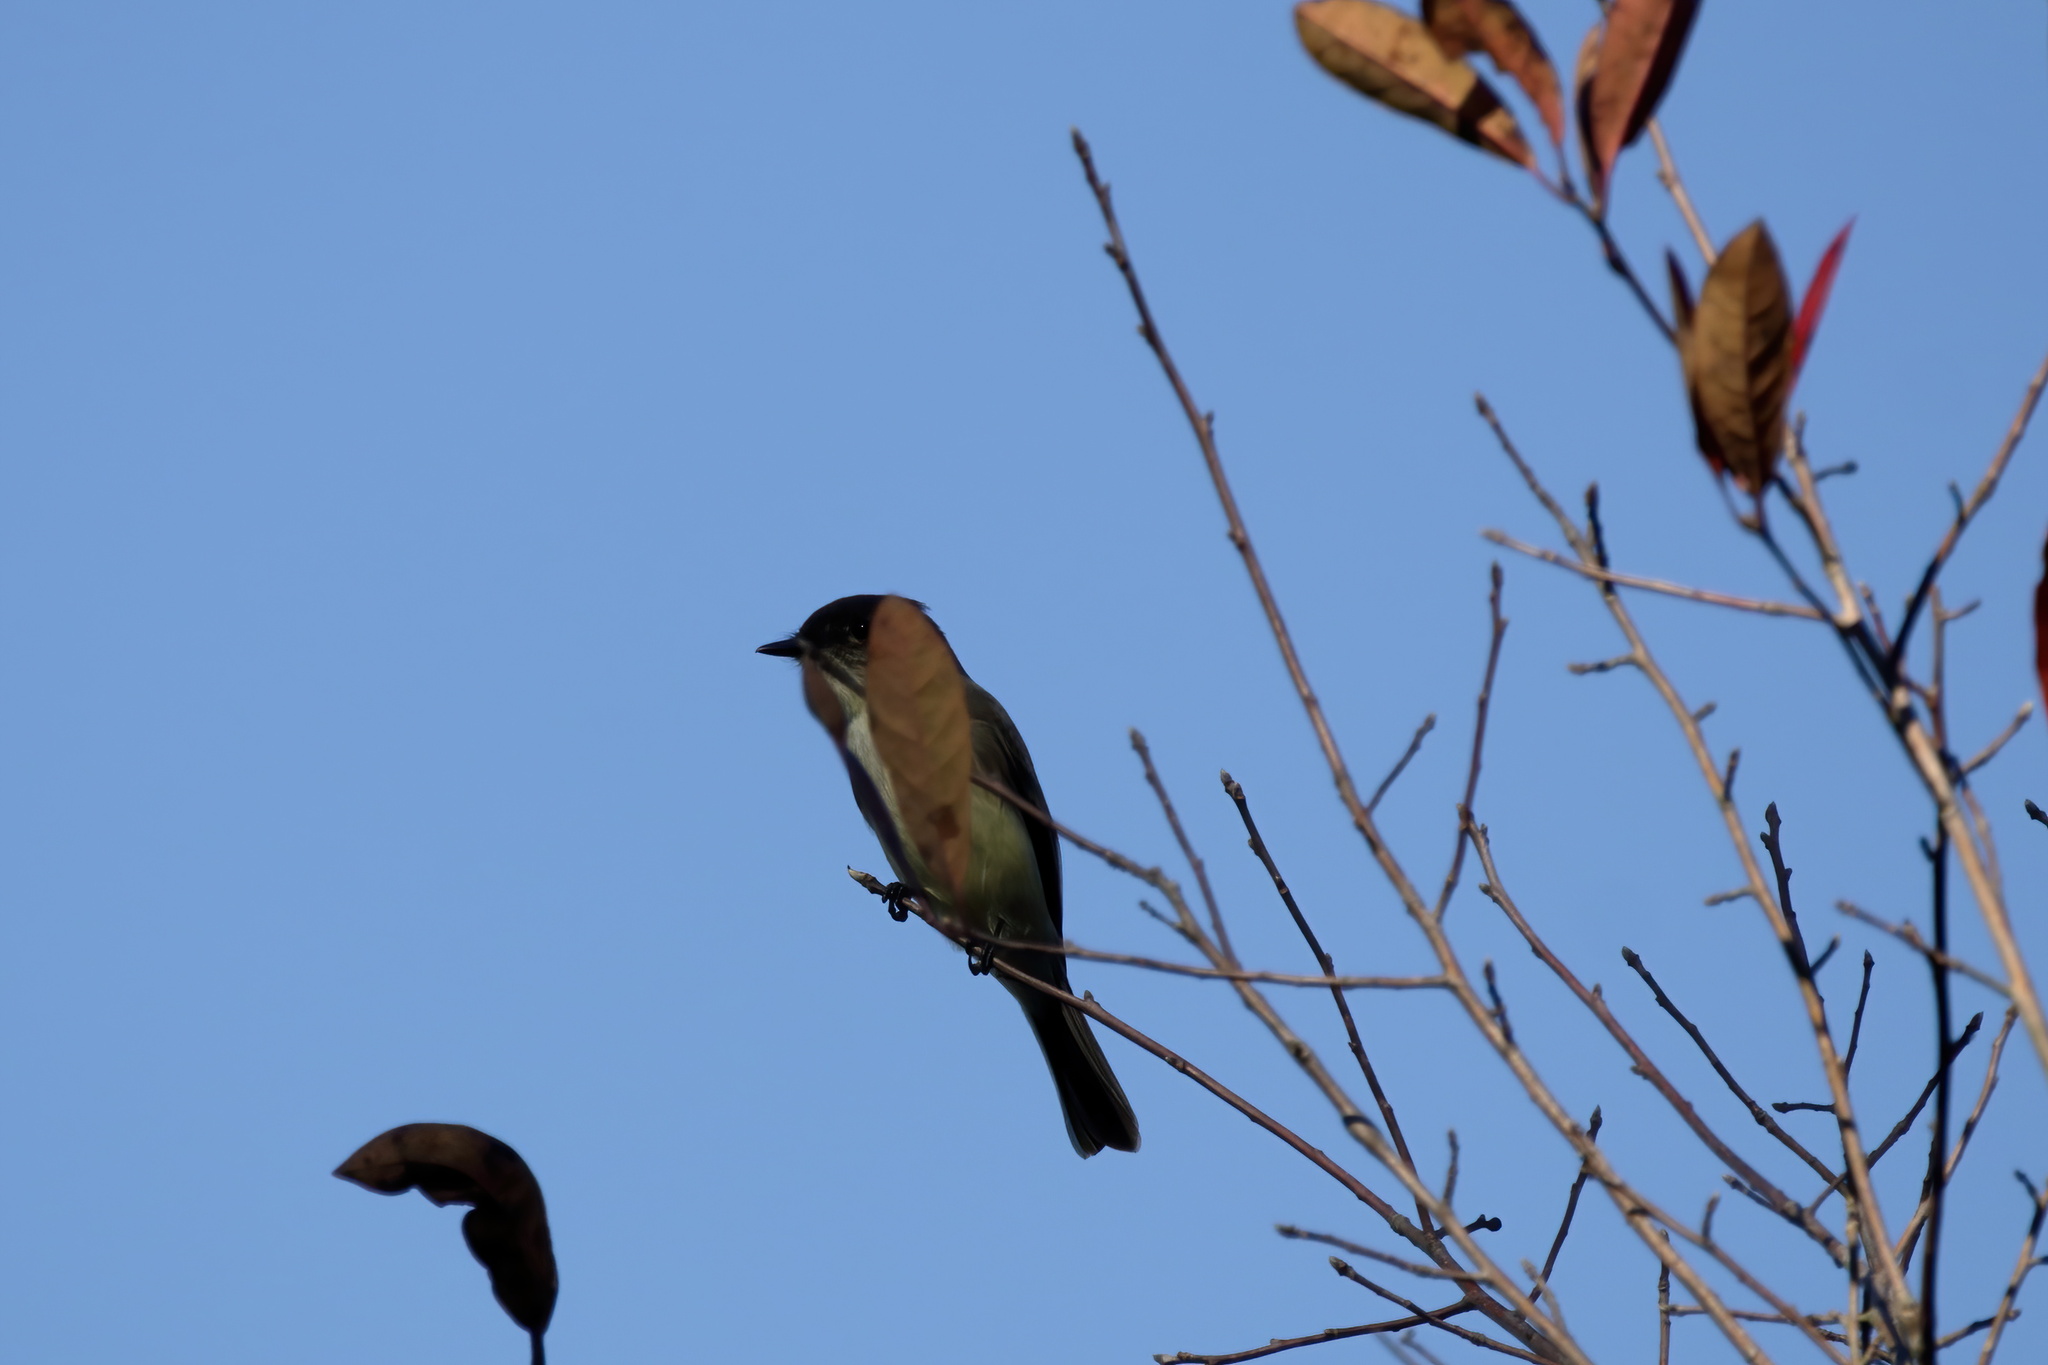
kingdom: Animalia
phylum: Chordata
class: Aves
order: Passeriformes
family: Tyrannidae
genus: Sayornis
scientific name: Sayornis phoebe
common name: Eastern phoebe
